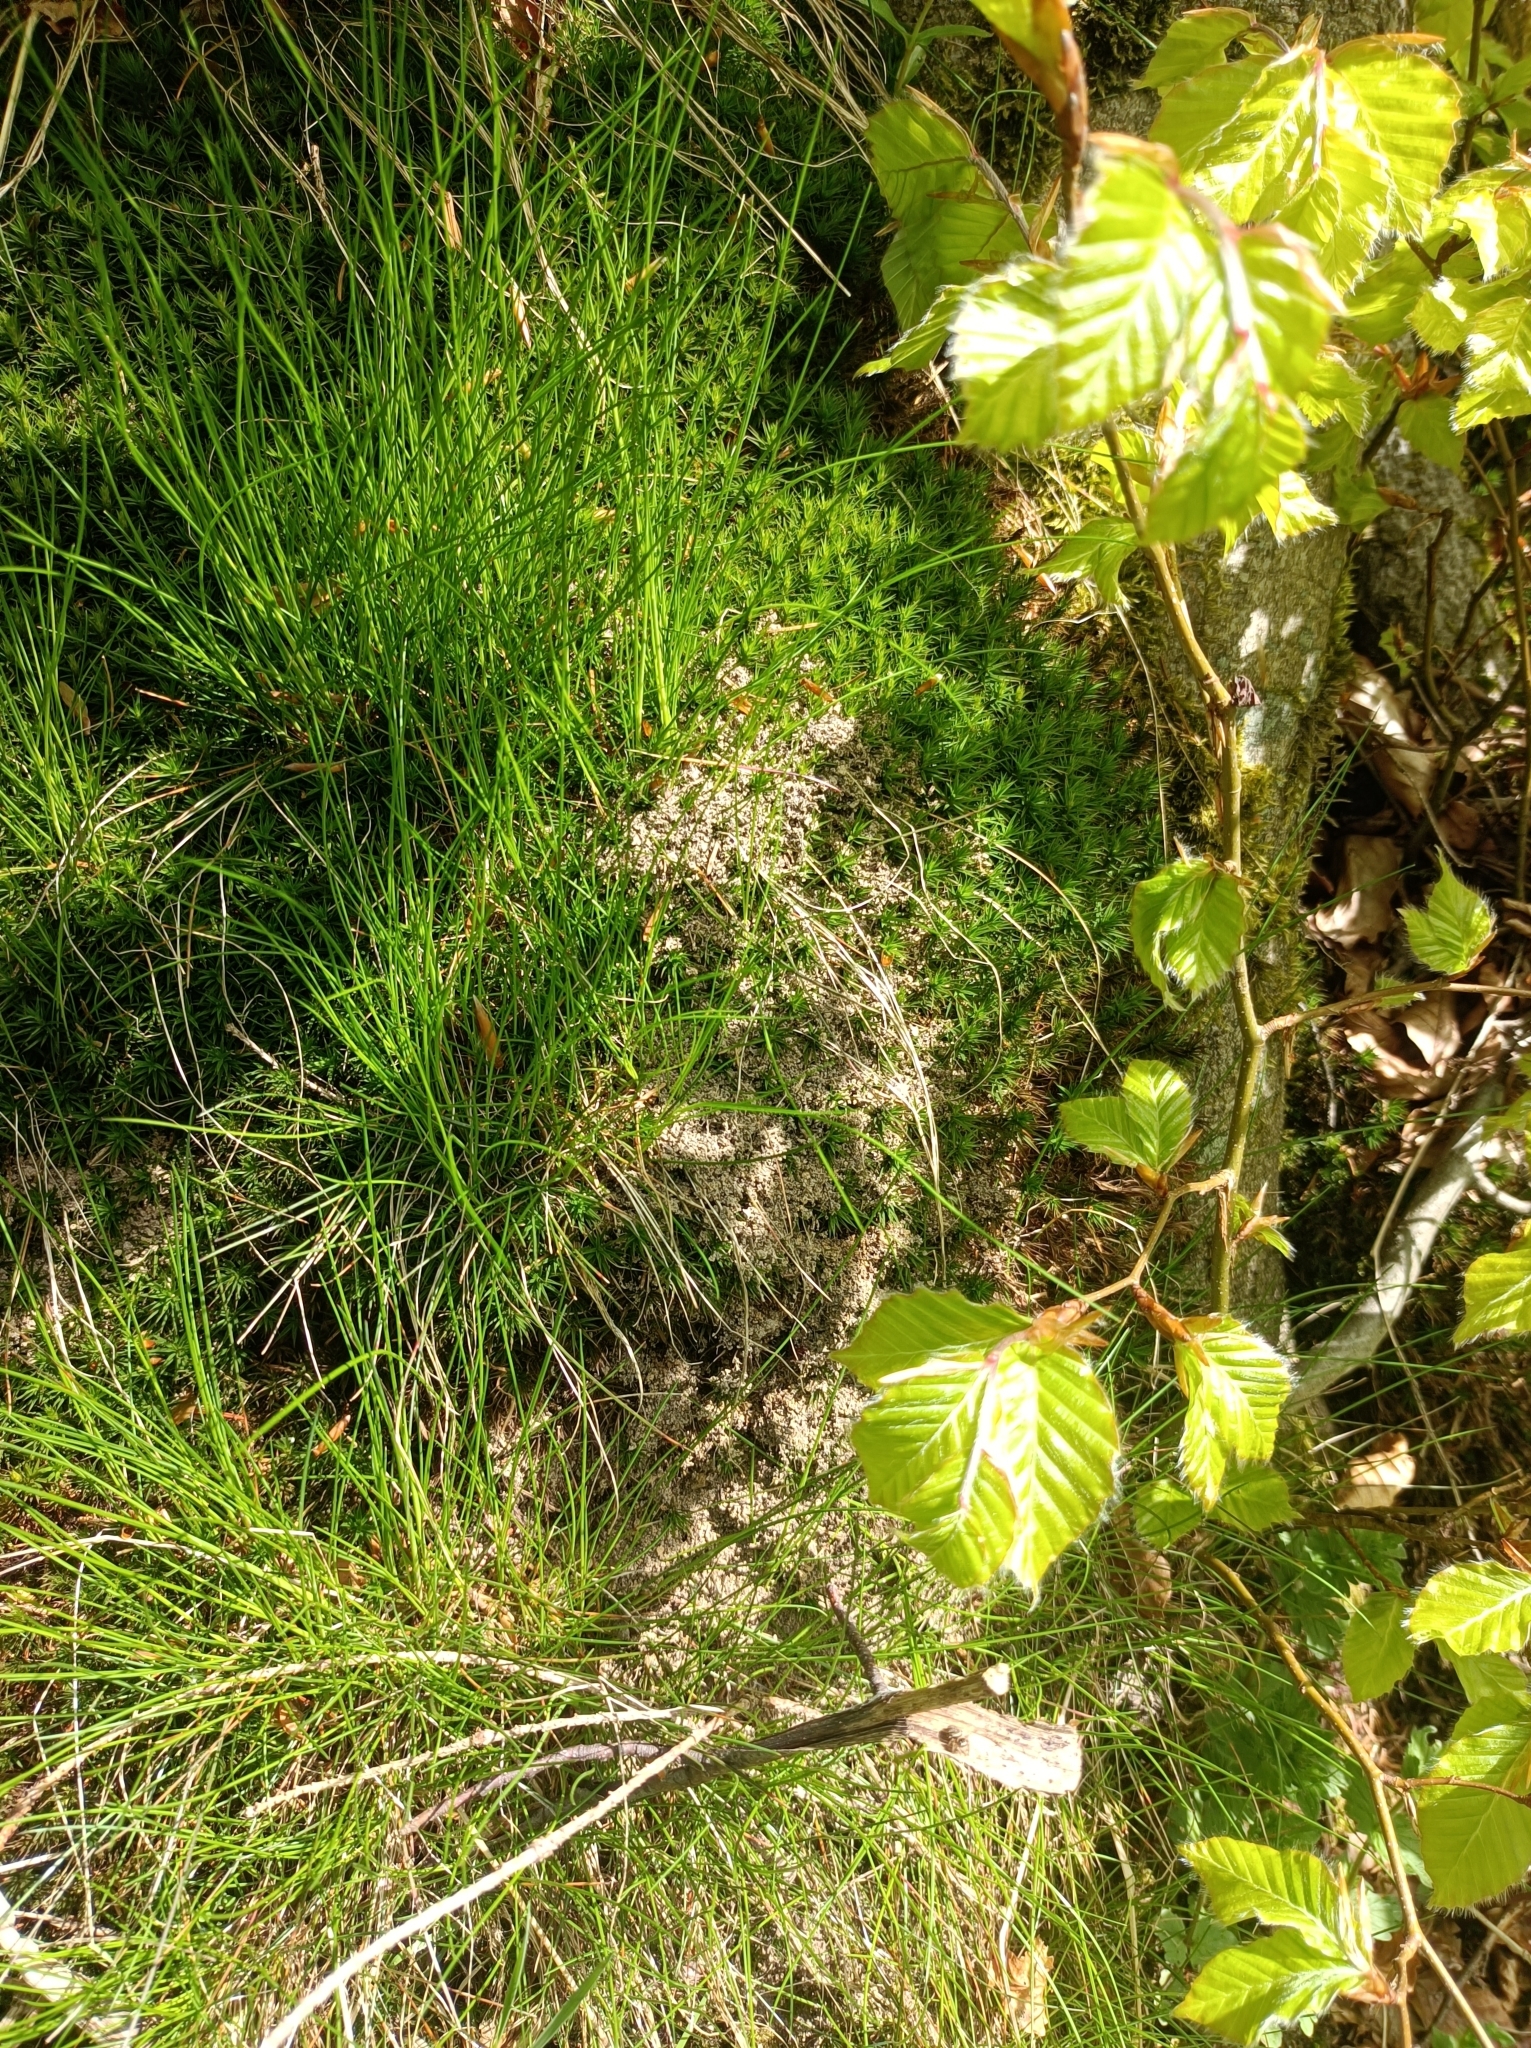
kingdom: Animalia
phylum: Arthropoda
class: Insecta
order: Hymenoptera
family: Formicidae
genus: Manica
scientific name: Manica rubida
